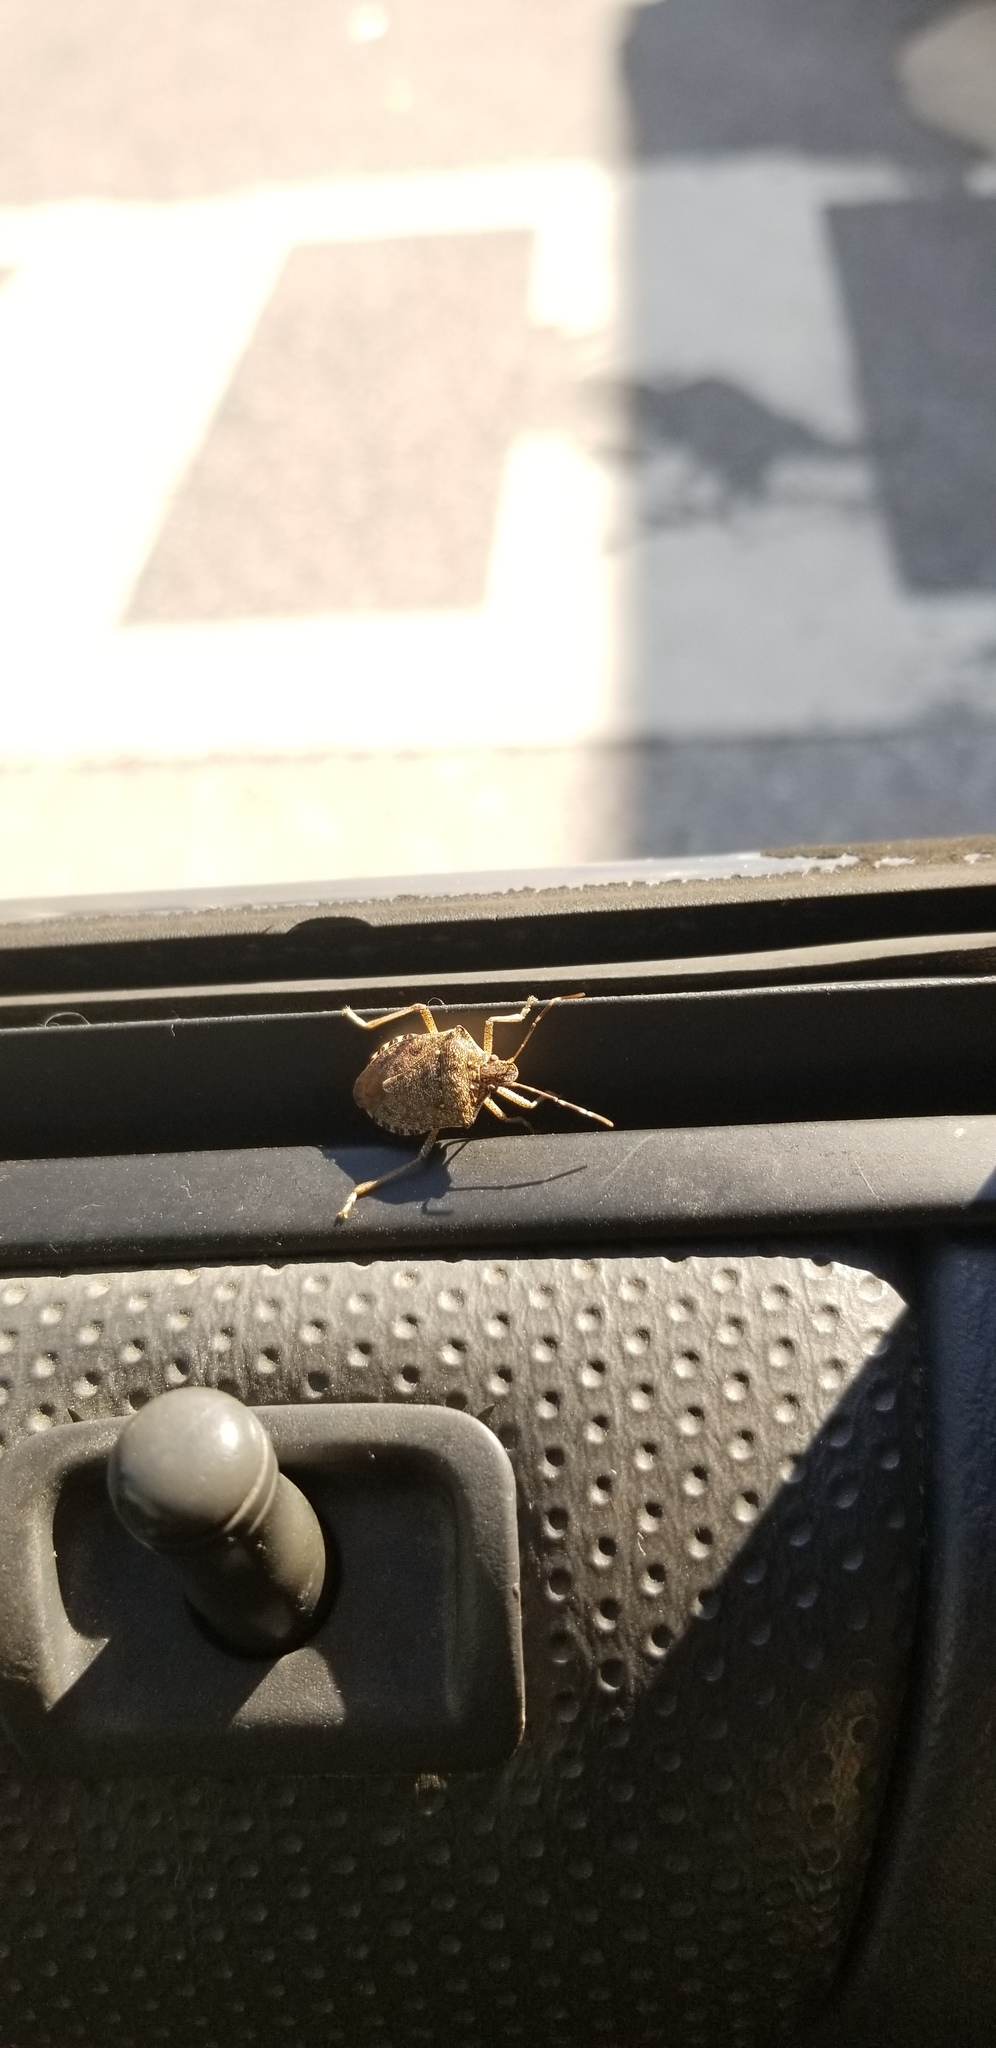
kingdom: Animalia
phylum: Arthropoda
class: Insecta
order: Hemiptera
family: Pentatomidae
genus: Halyomorpha
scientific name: Halyomorpha halys
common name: Brown marmorated stink bug
